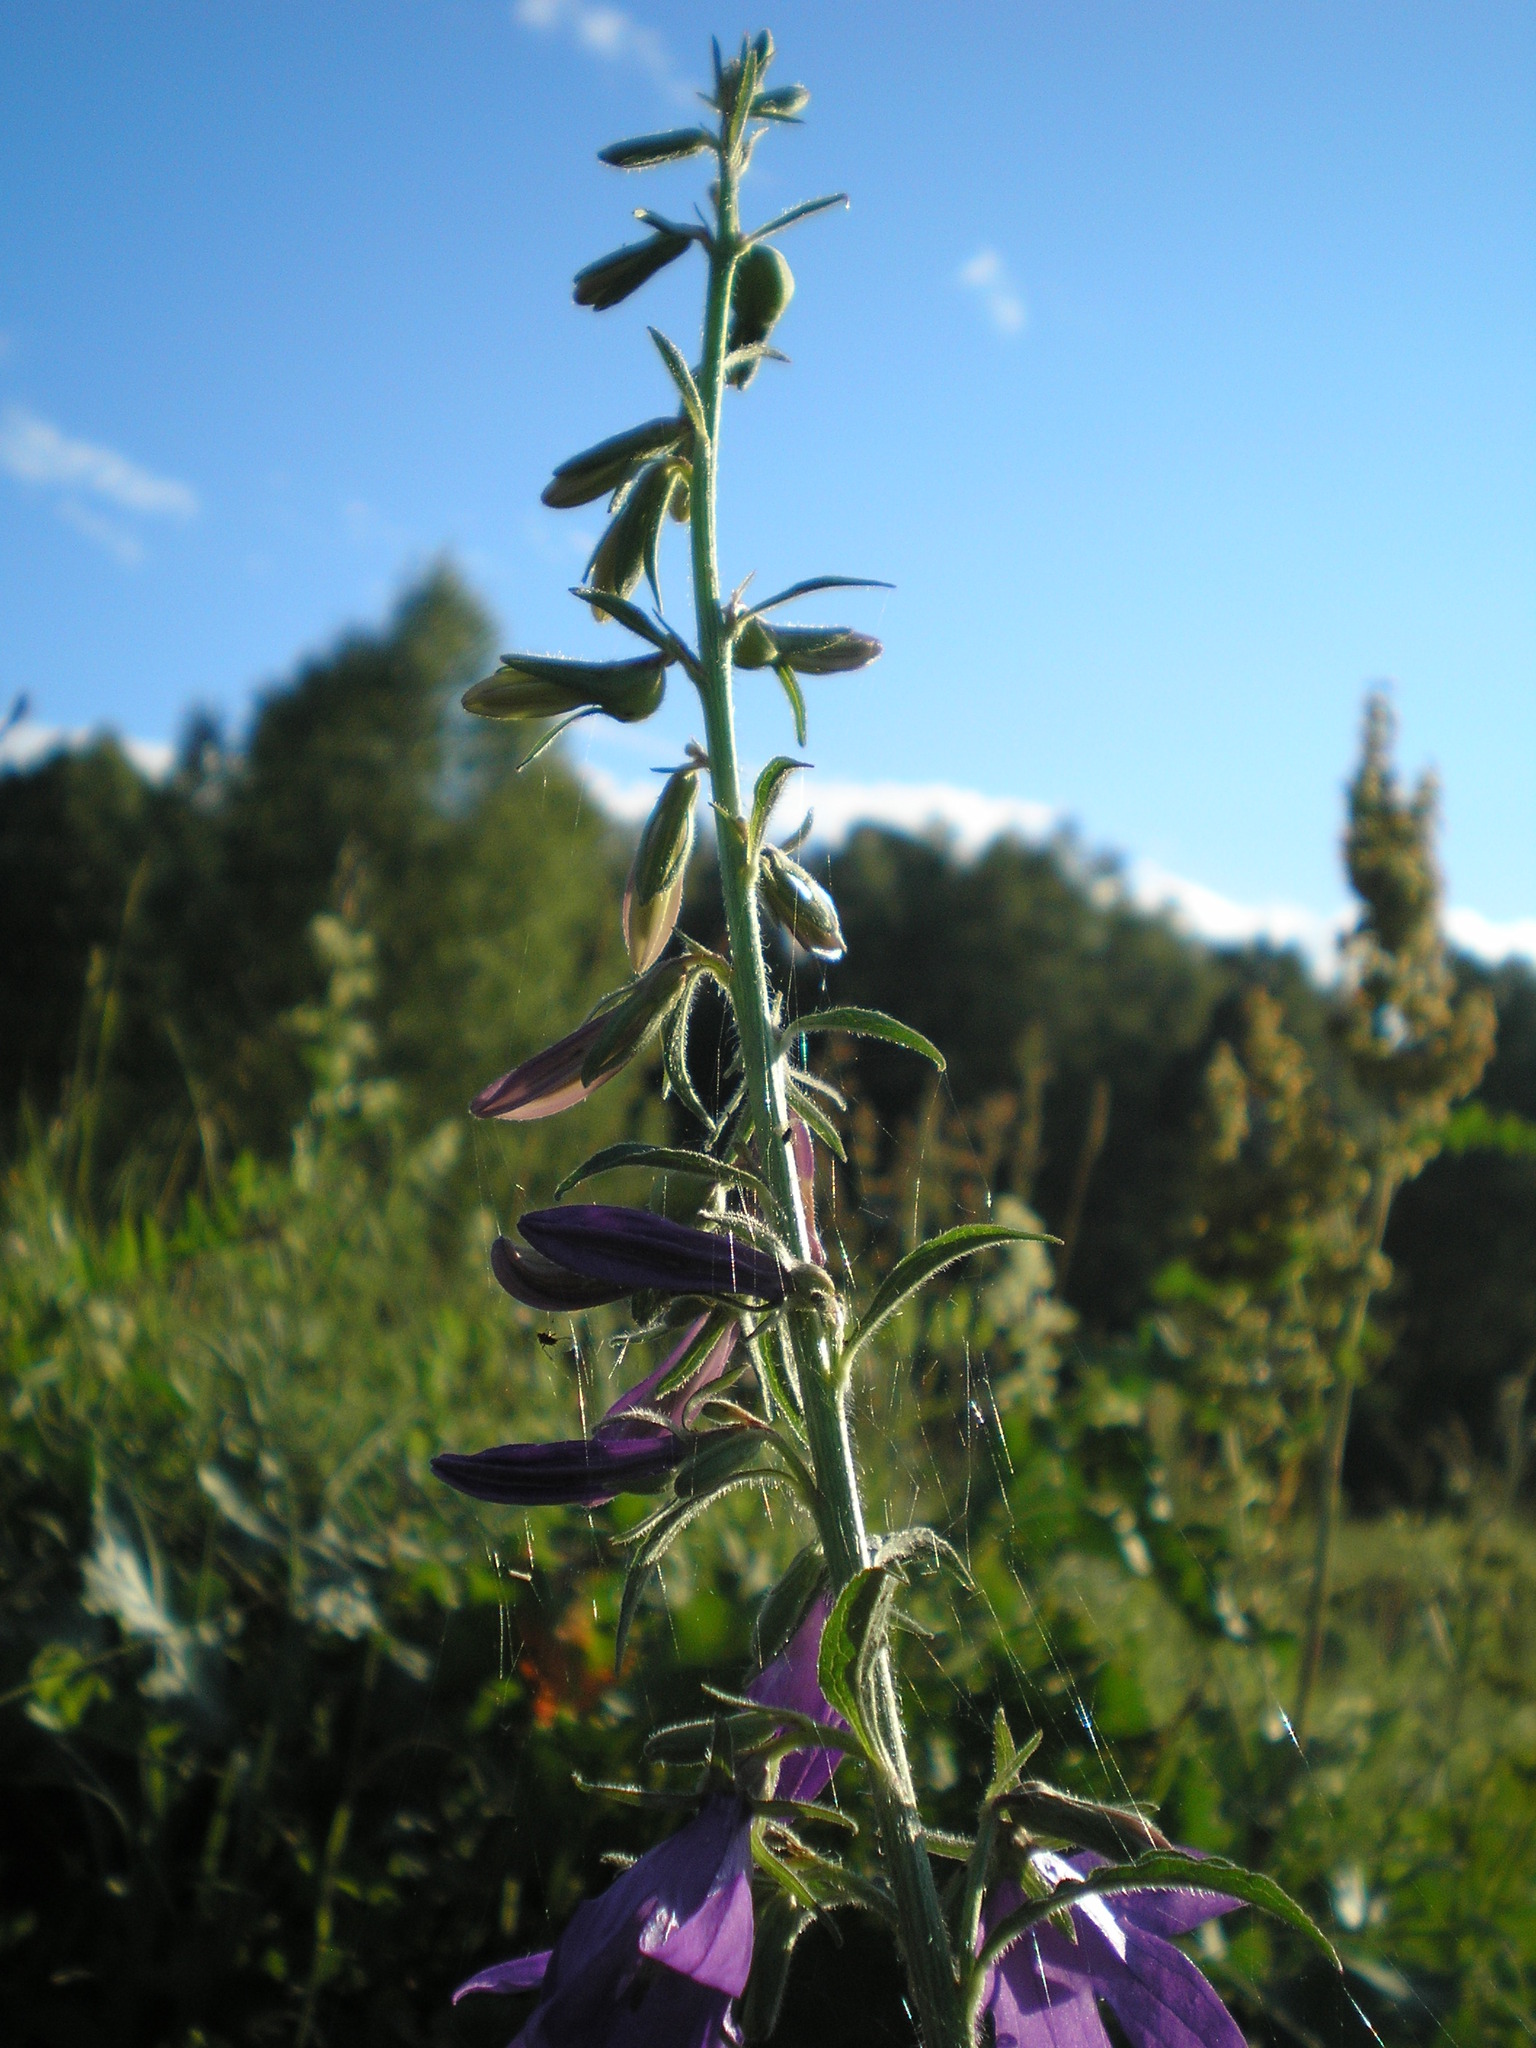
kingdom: Plantae
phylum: Tracheophyta
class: Magnoliopsida
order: Asterales
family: Campanulaceae
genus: Campanula
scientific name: Campanula rapunculoides
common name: Creeping bellflower
